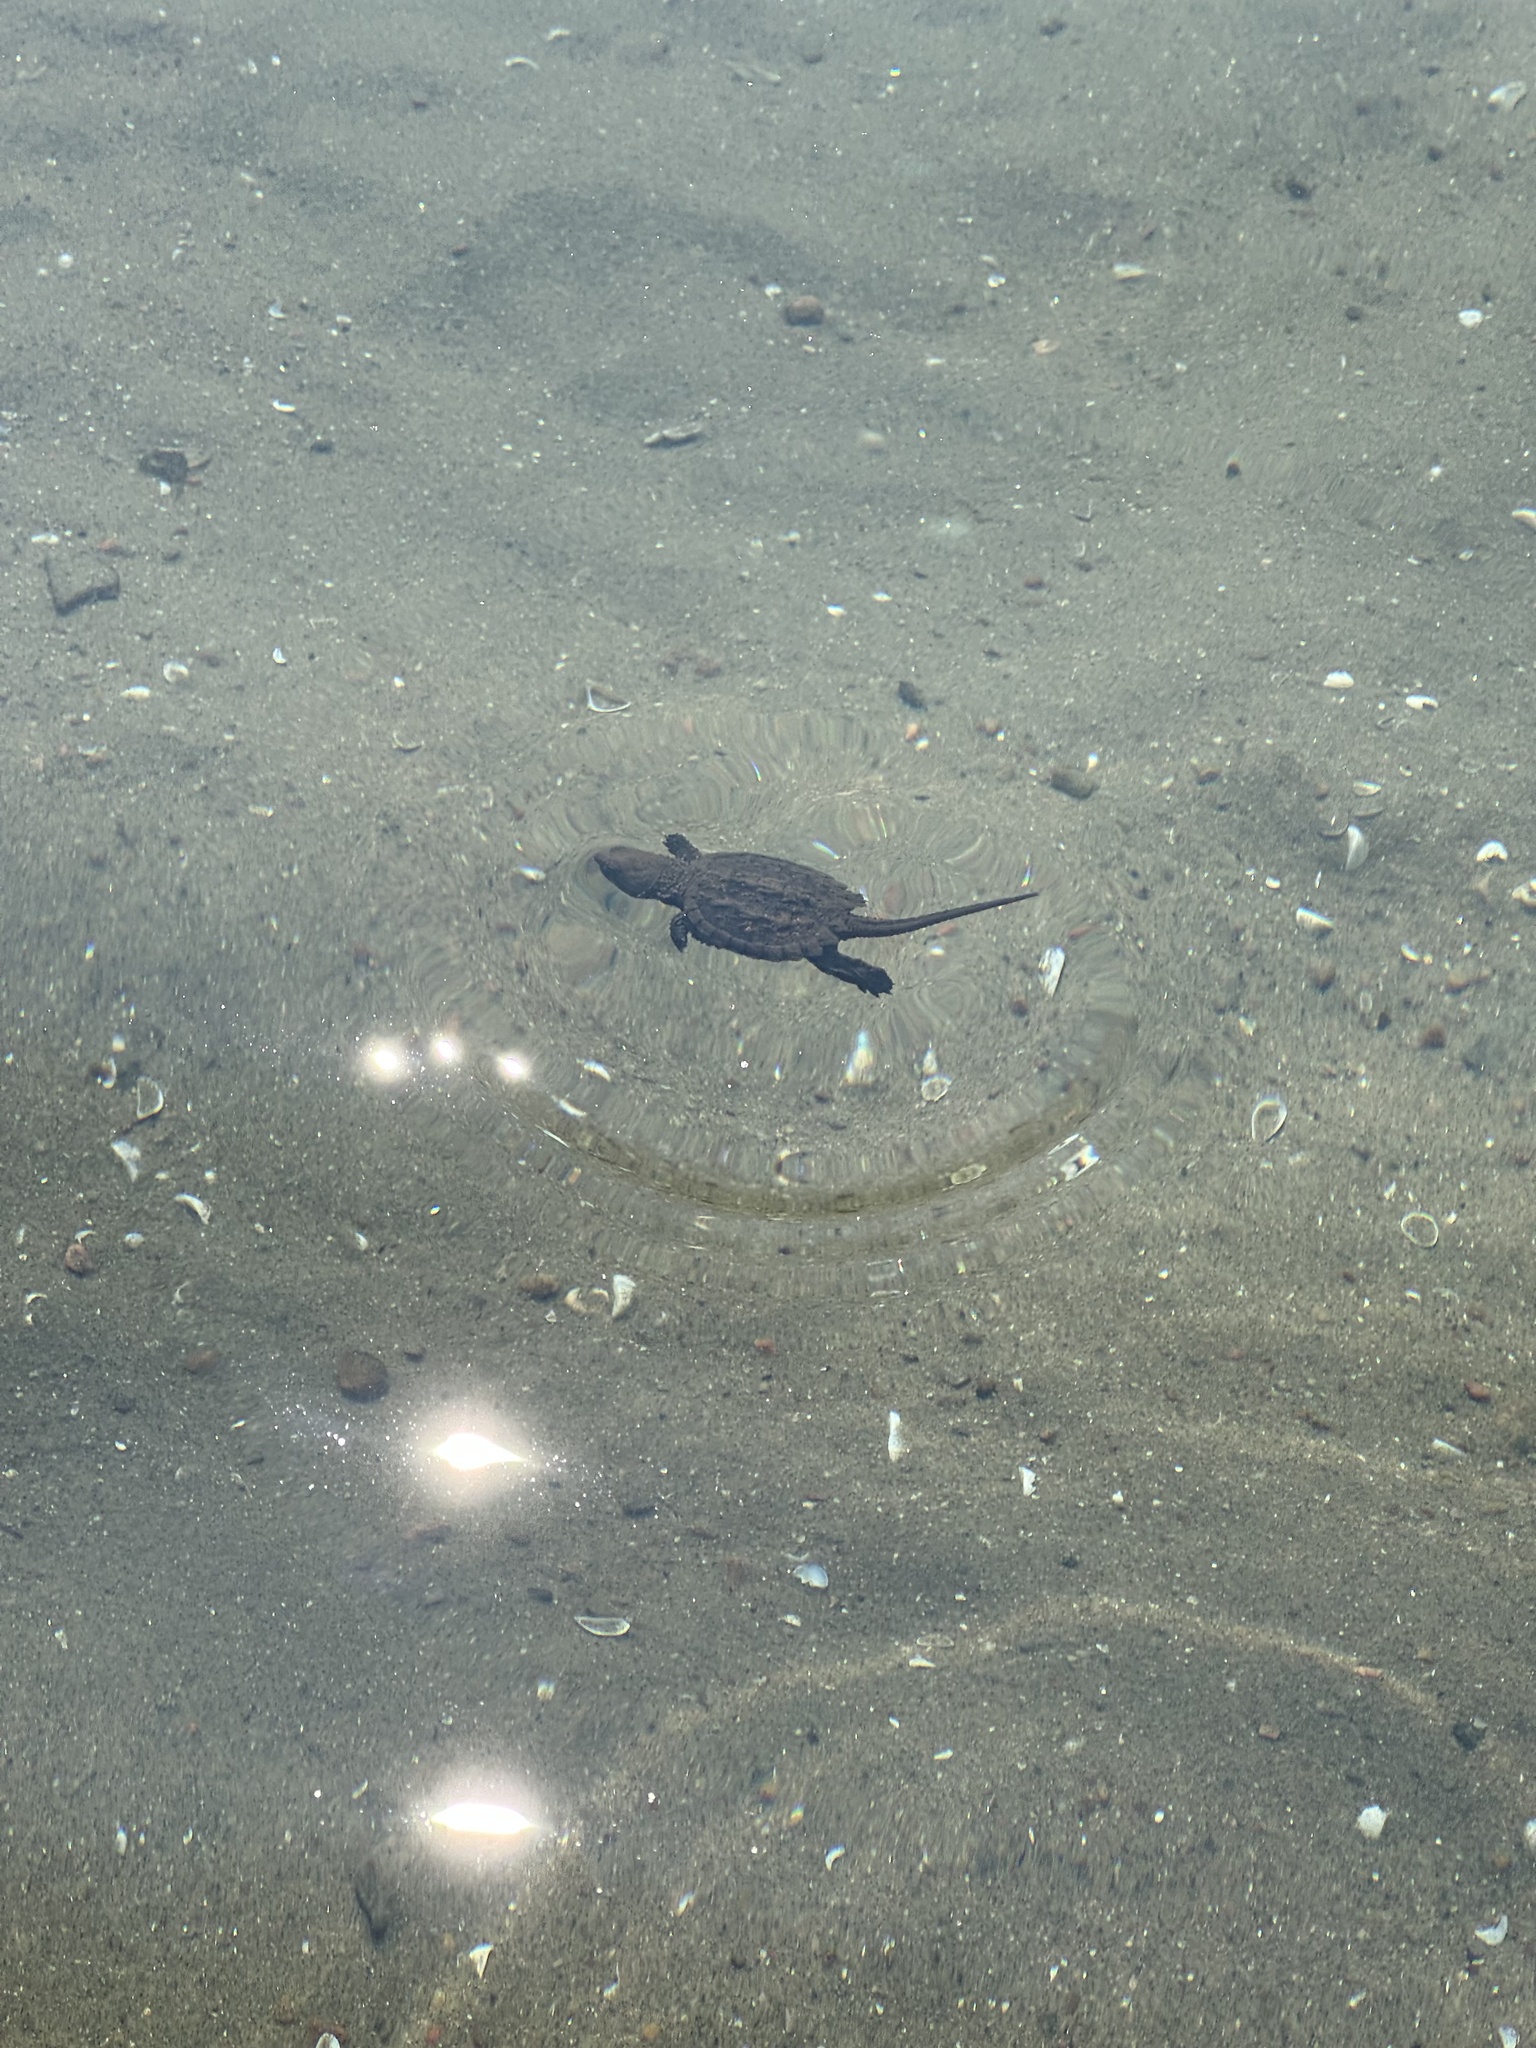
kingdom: Animalia
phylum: Chordata
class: Testudines
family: Chelydridae
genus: Chelydra
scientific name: Chelydra serpentina
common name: Common snapping turtle
